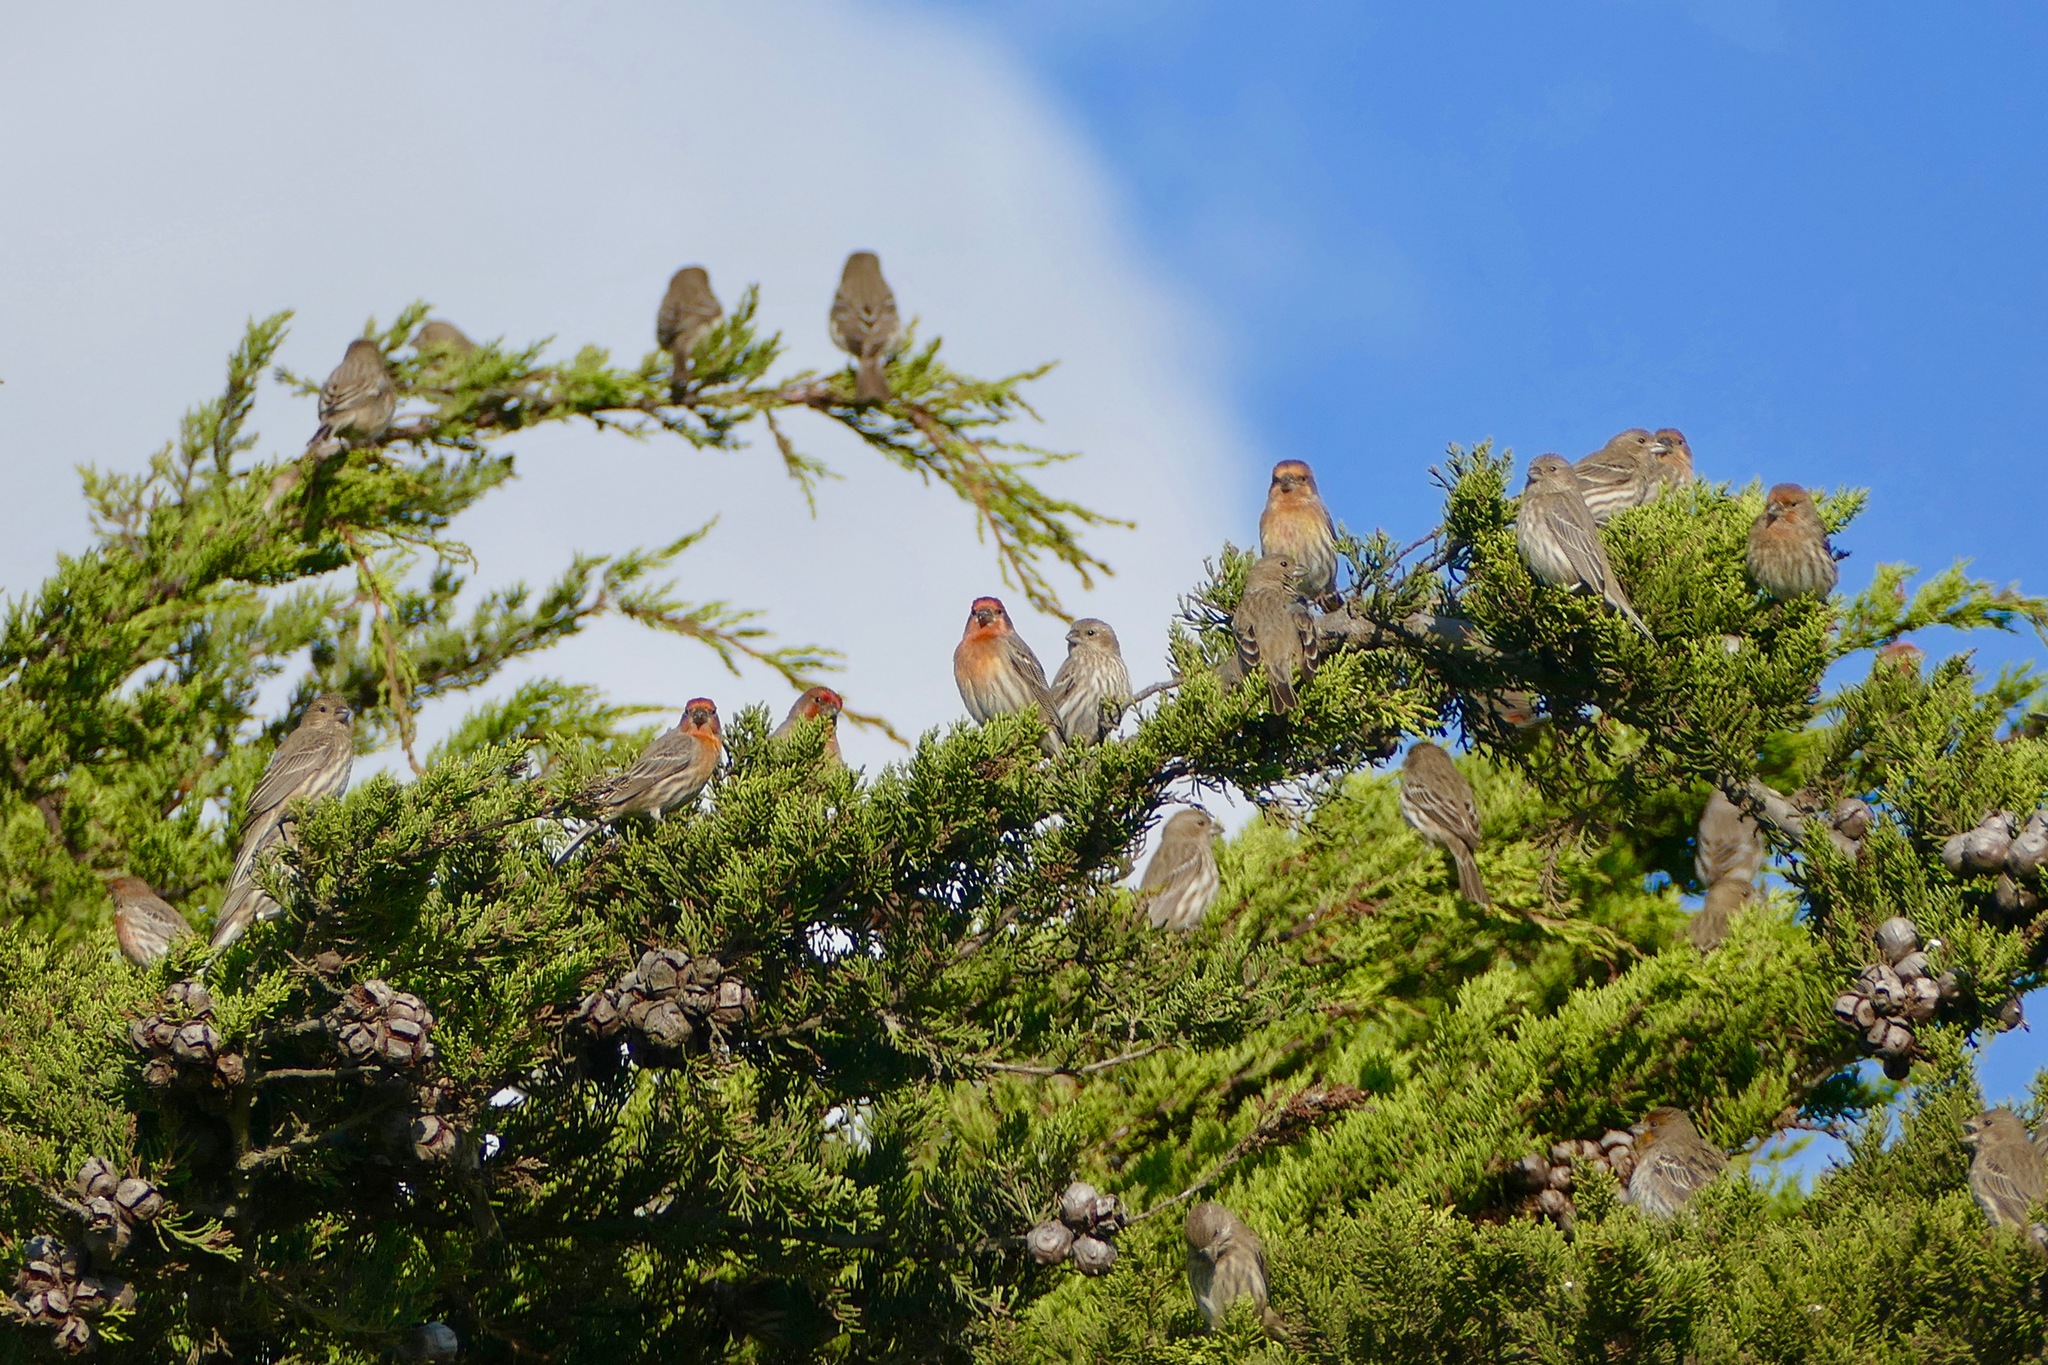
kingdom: Animalia
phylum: Chordata
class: Aves
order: Passeriformes
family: Fringillidae
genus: Haemorhous
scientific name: Haemorhous mexicanus
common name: House finch
